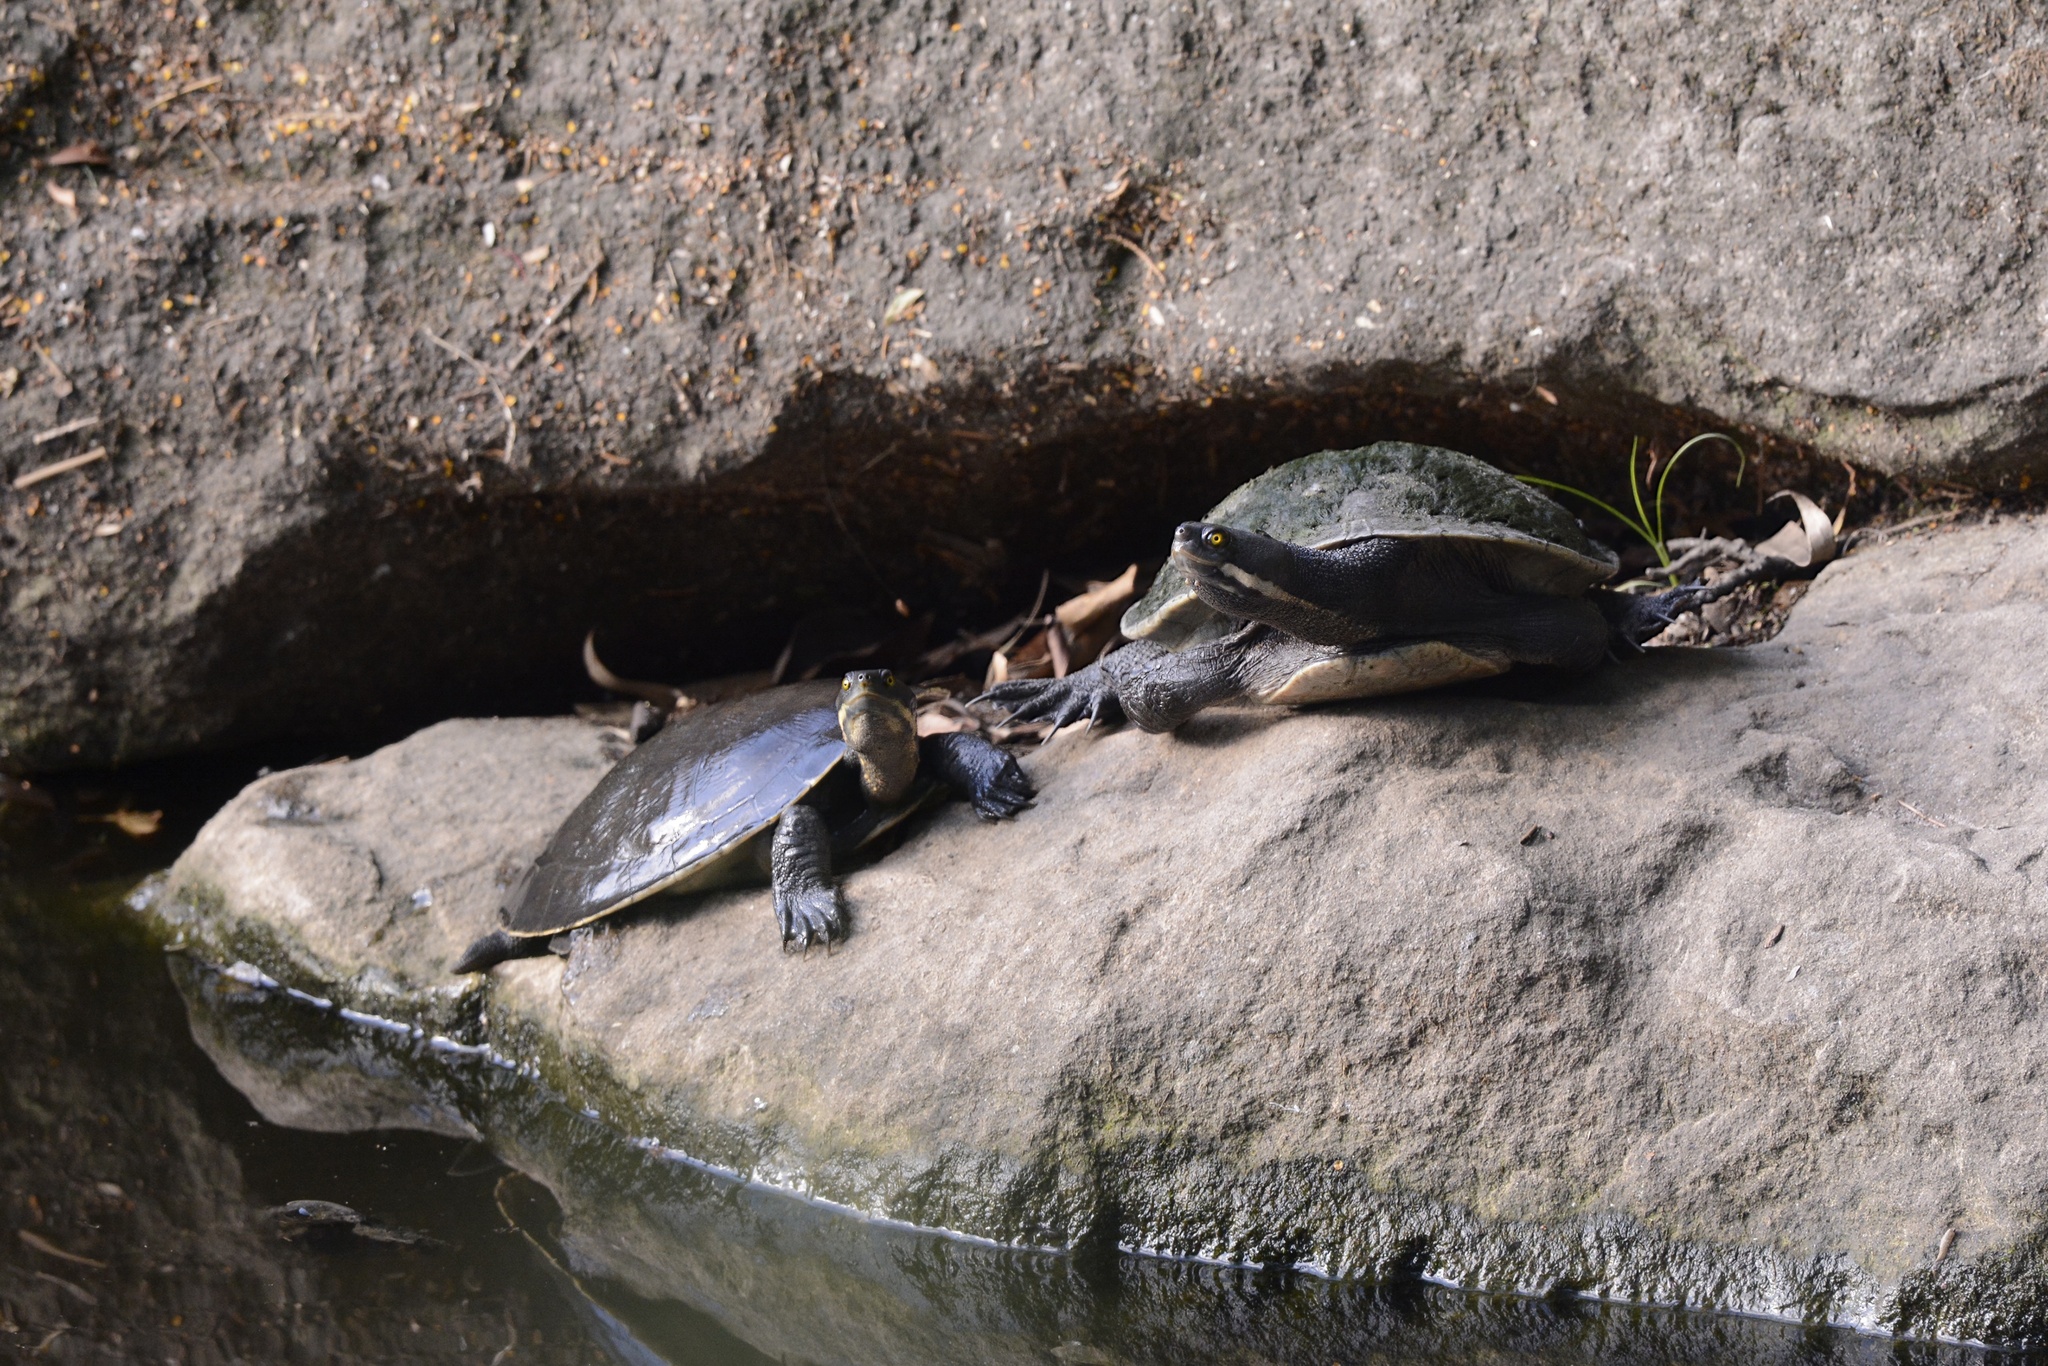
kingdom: Animalia
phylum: Chordata
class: Testudines
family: Chelidae
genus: Emydura
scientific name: Emydura macquarii
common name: Murray river turtle
